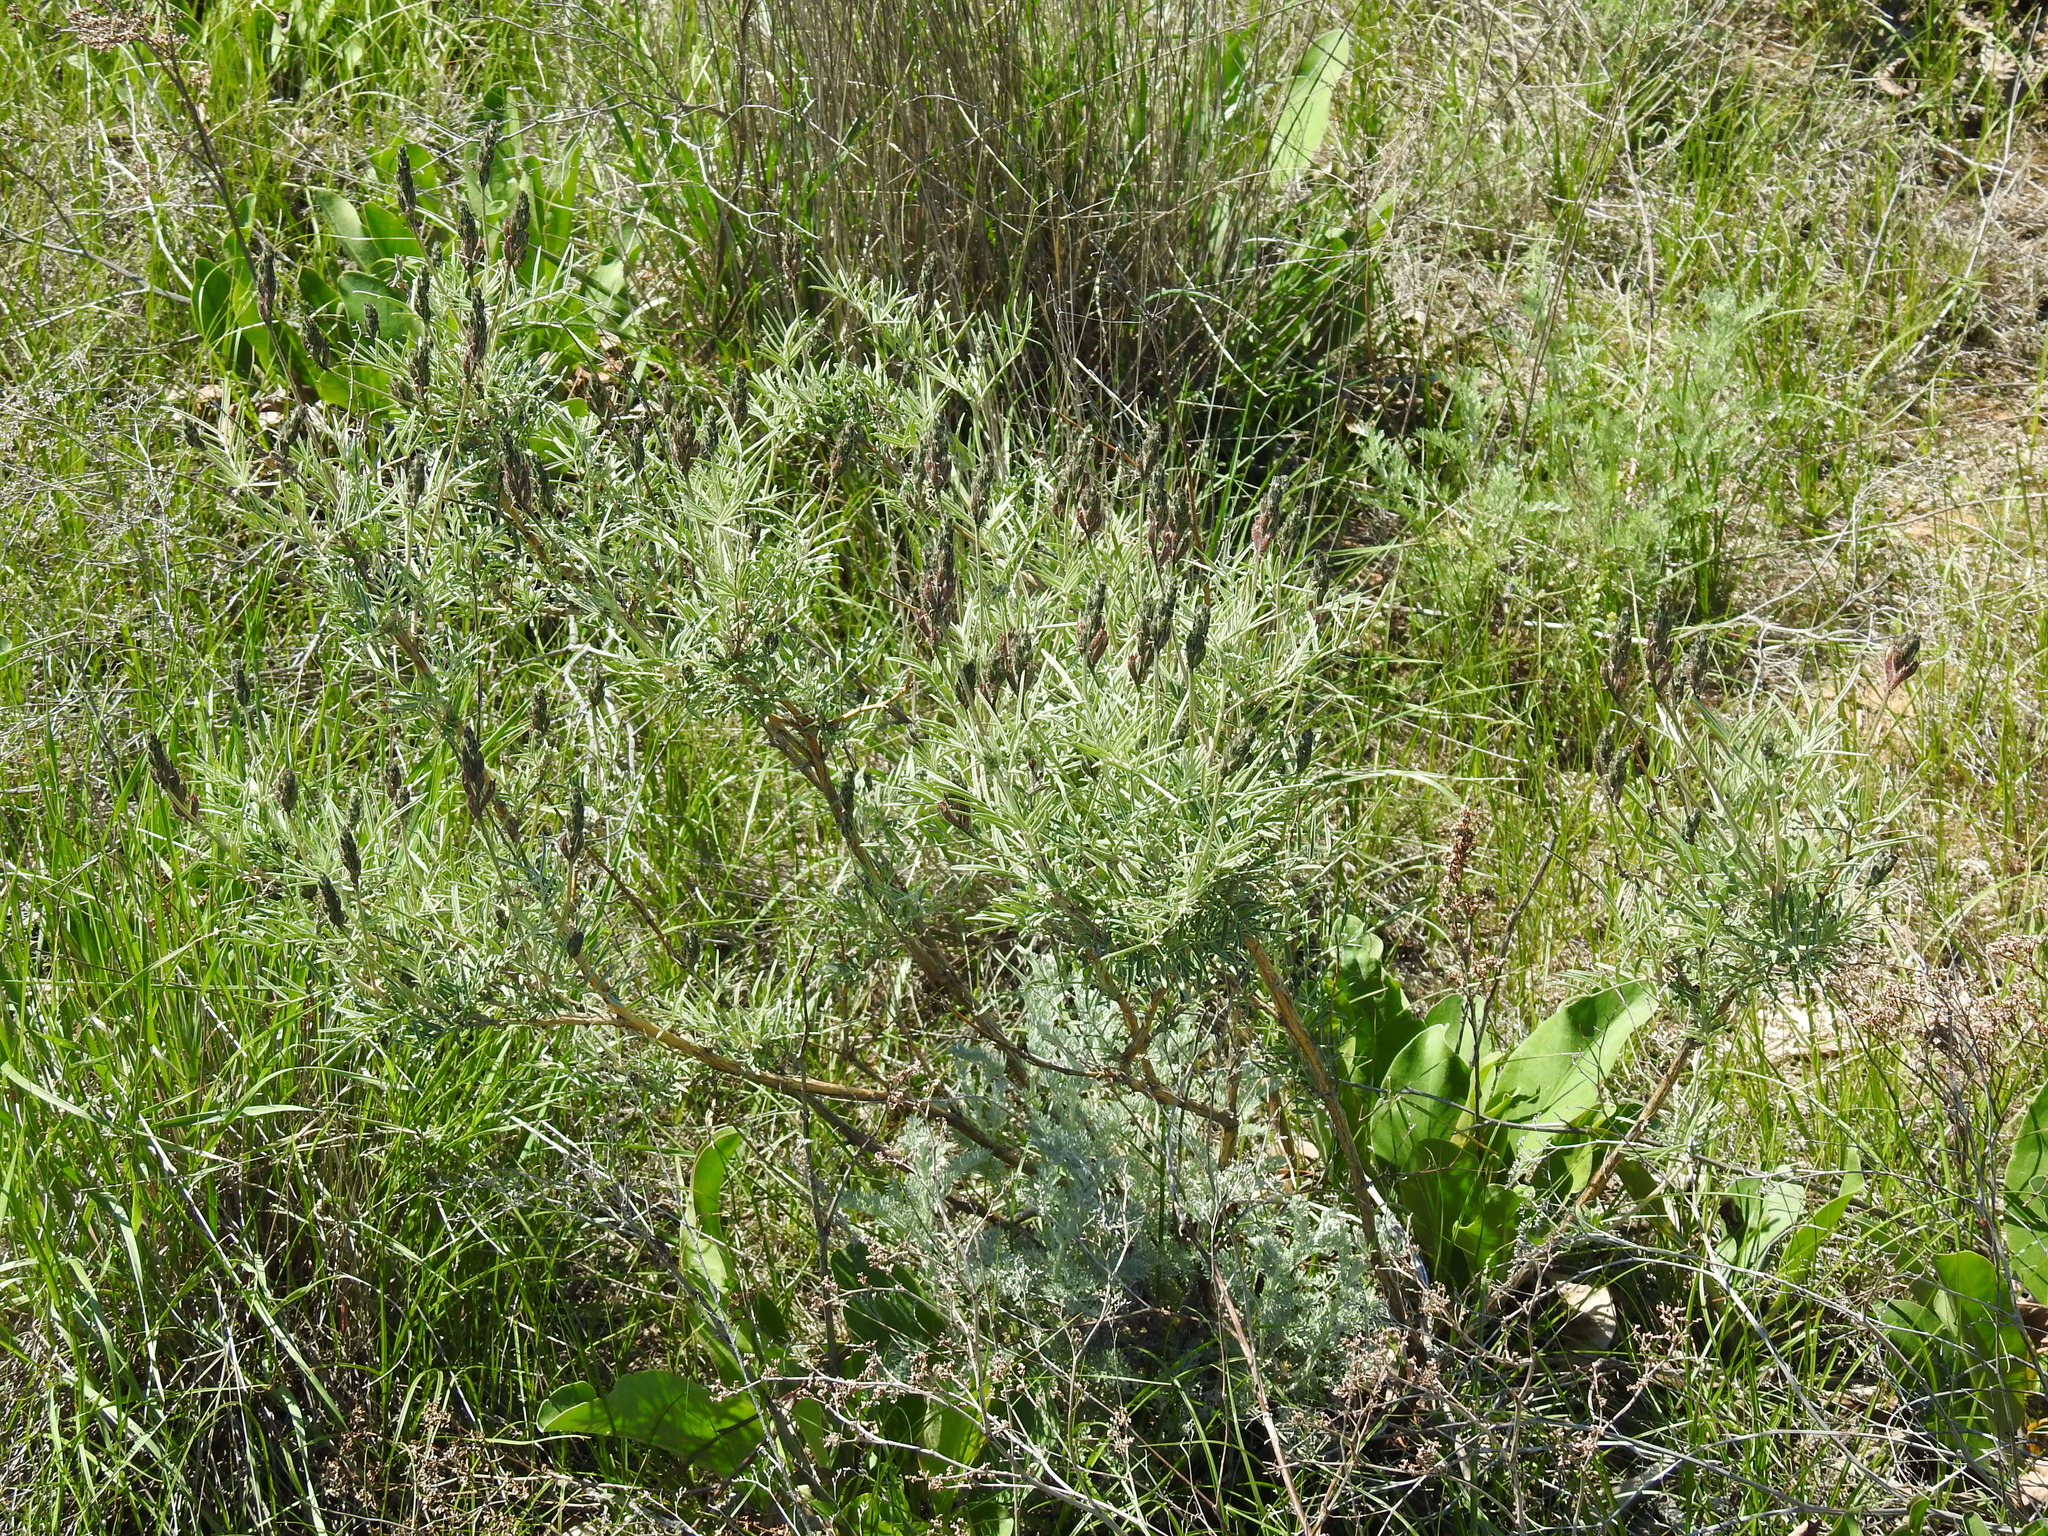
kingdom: Plantae
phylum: Tracheophyta
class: Magnoliopsida
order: Fabales
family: Fabaceae
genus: Astragalus
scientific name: Astragalus brachylobus
